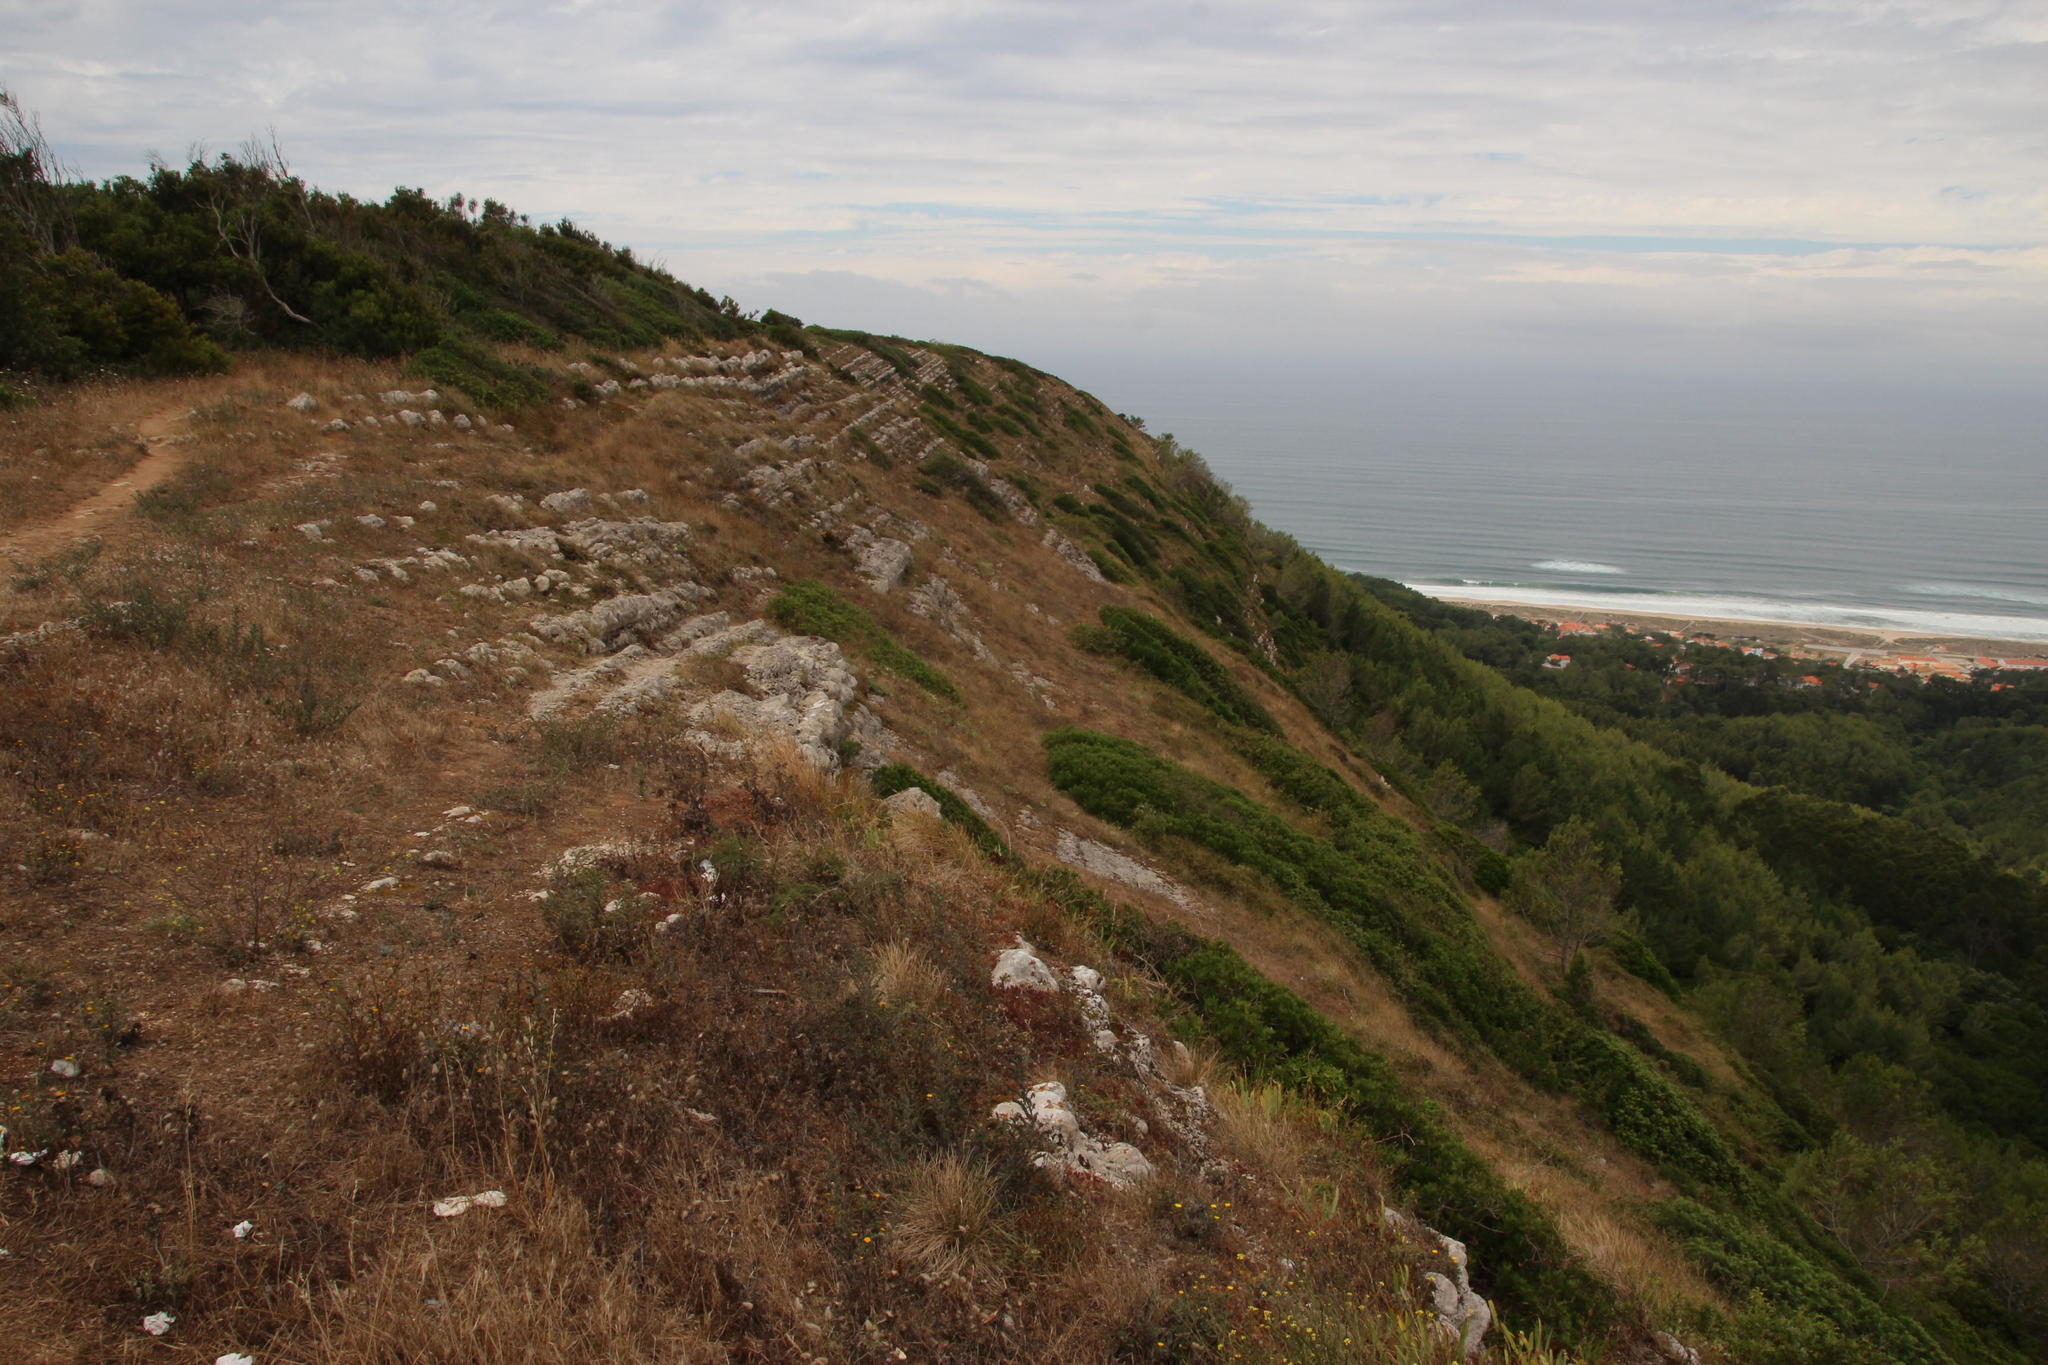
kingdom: Plantae
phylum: Tracheophyta
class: Magnoliopsida
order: Sapindales
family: Anacardiaceae
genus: Pistacia
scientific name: Pistacia lentiscus
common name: Lentisk
